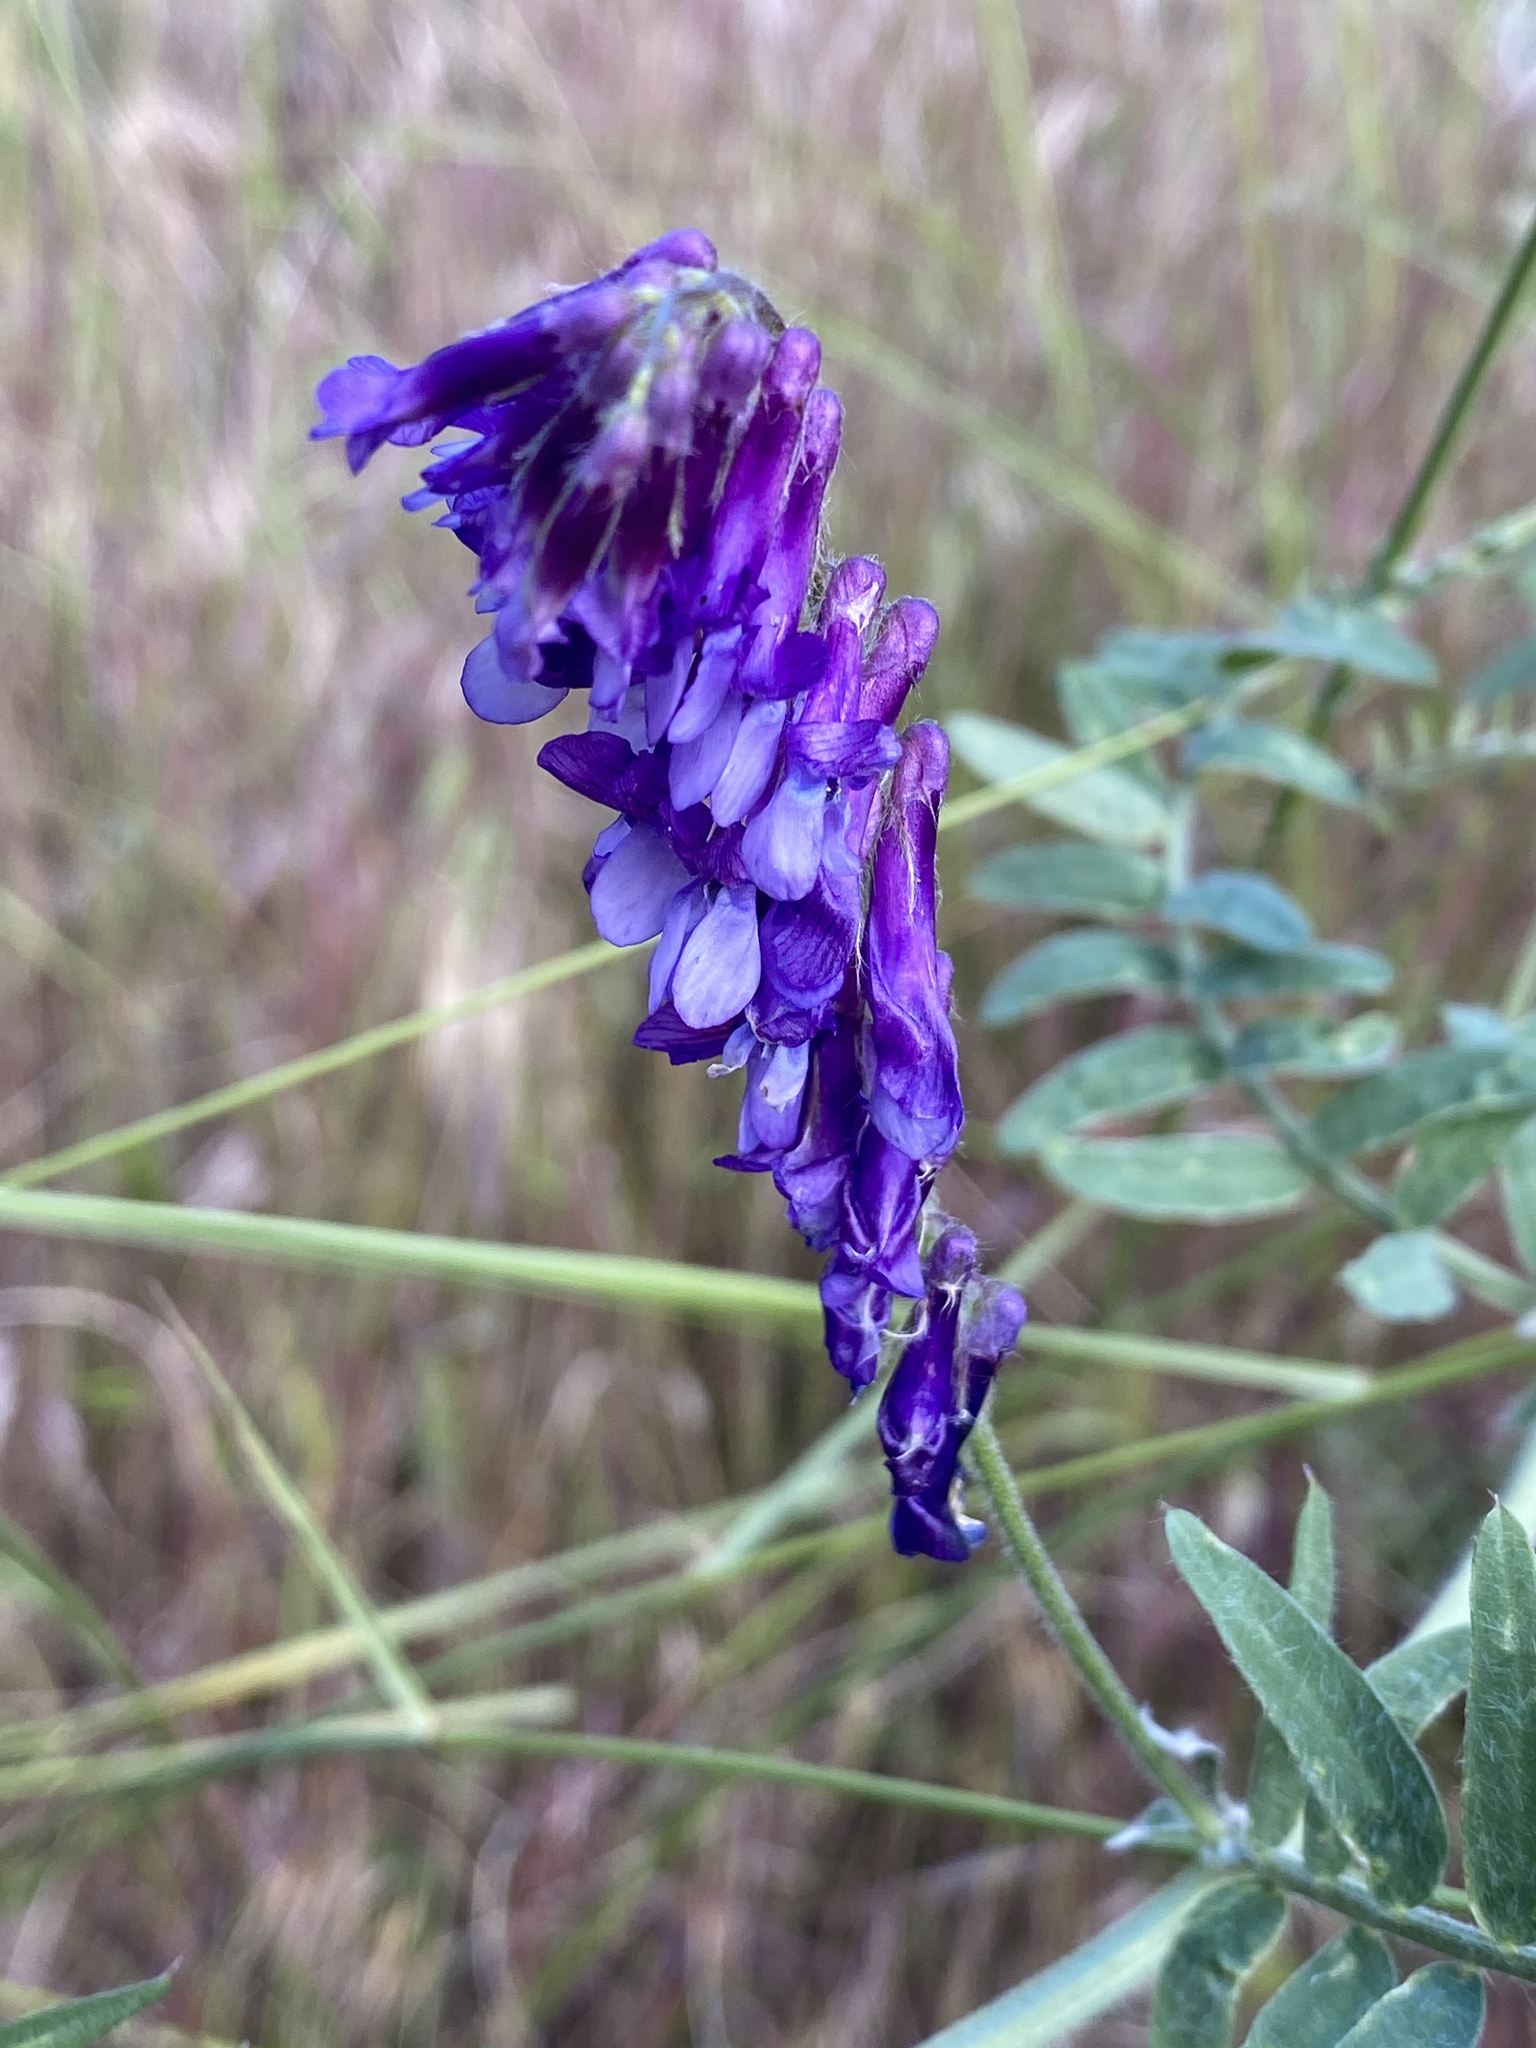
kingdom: Plantae
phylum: Tracheophyta
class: Magnoliopsida
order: Fabales
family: Fabaceae
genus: Vicia
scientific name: Vicia villosa
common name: Fodder vetch
